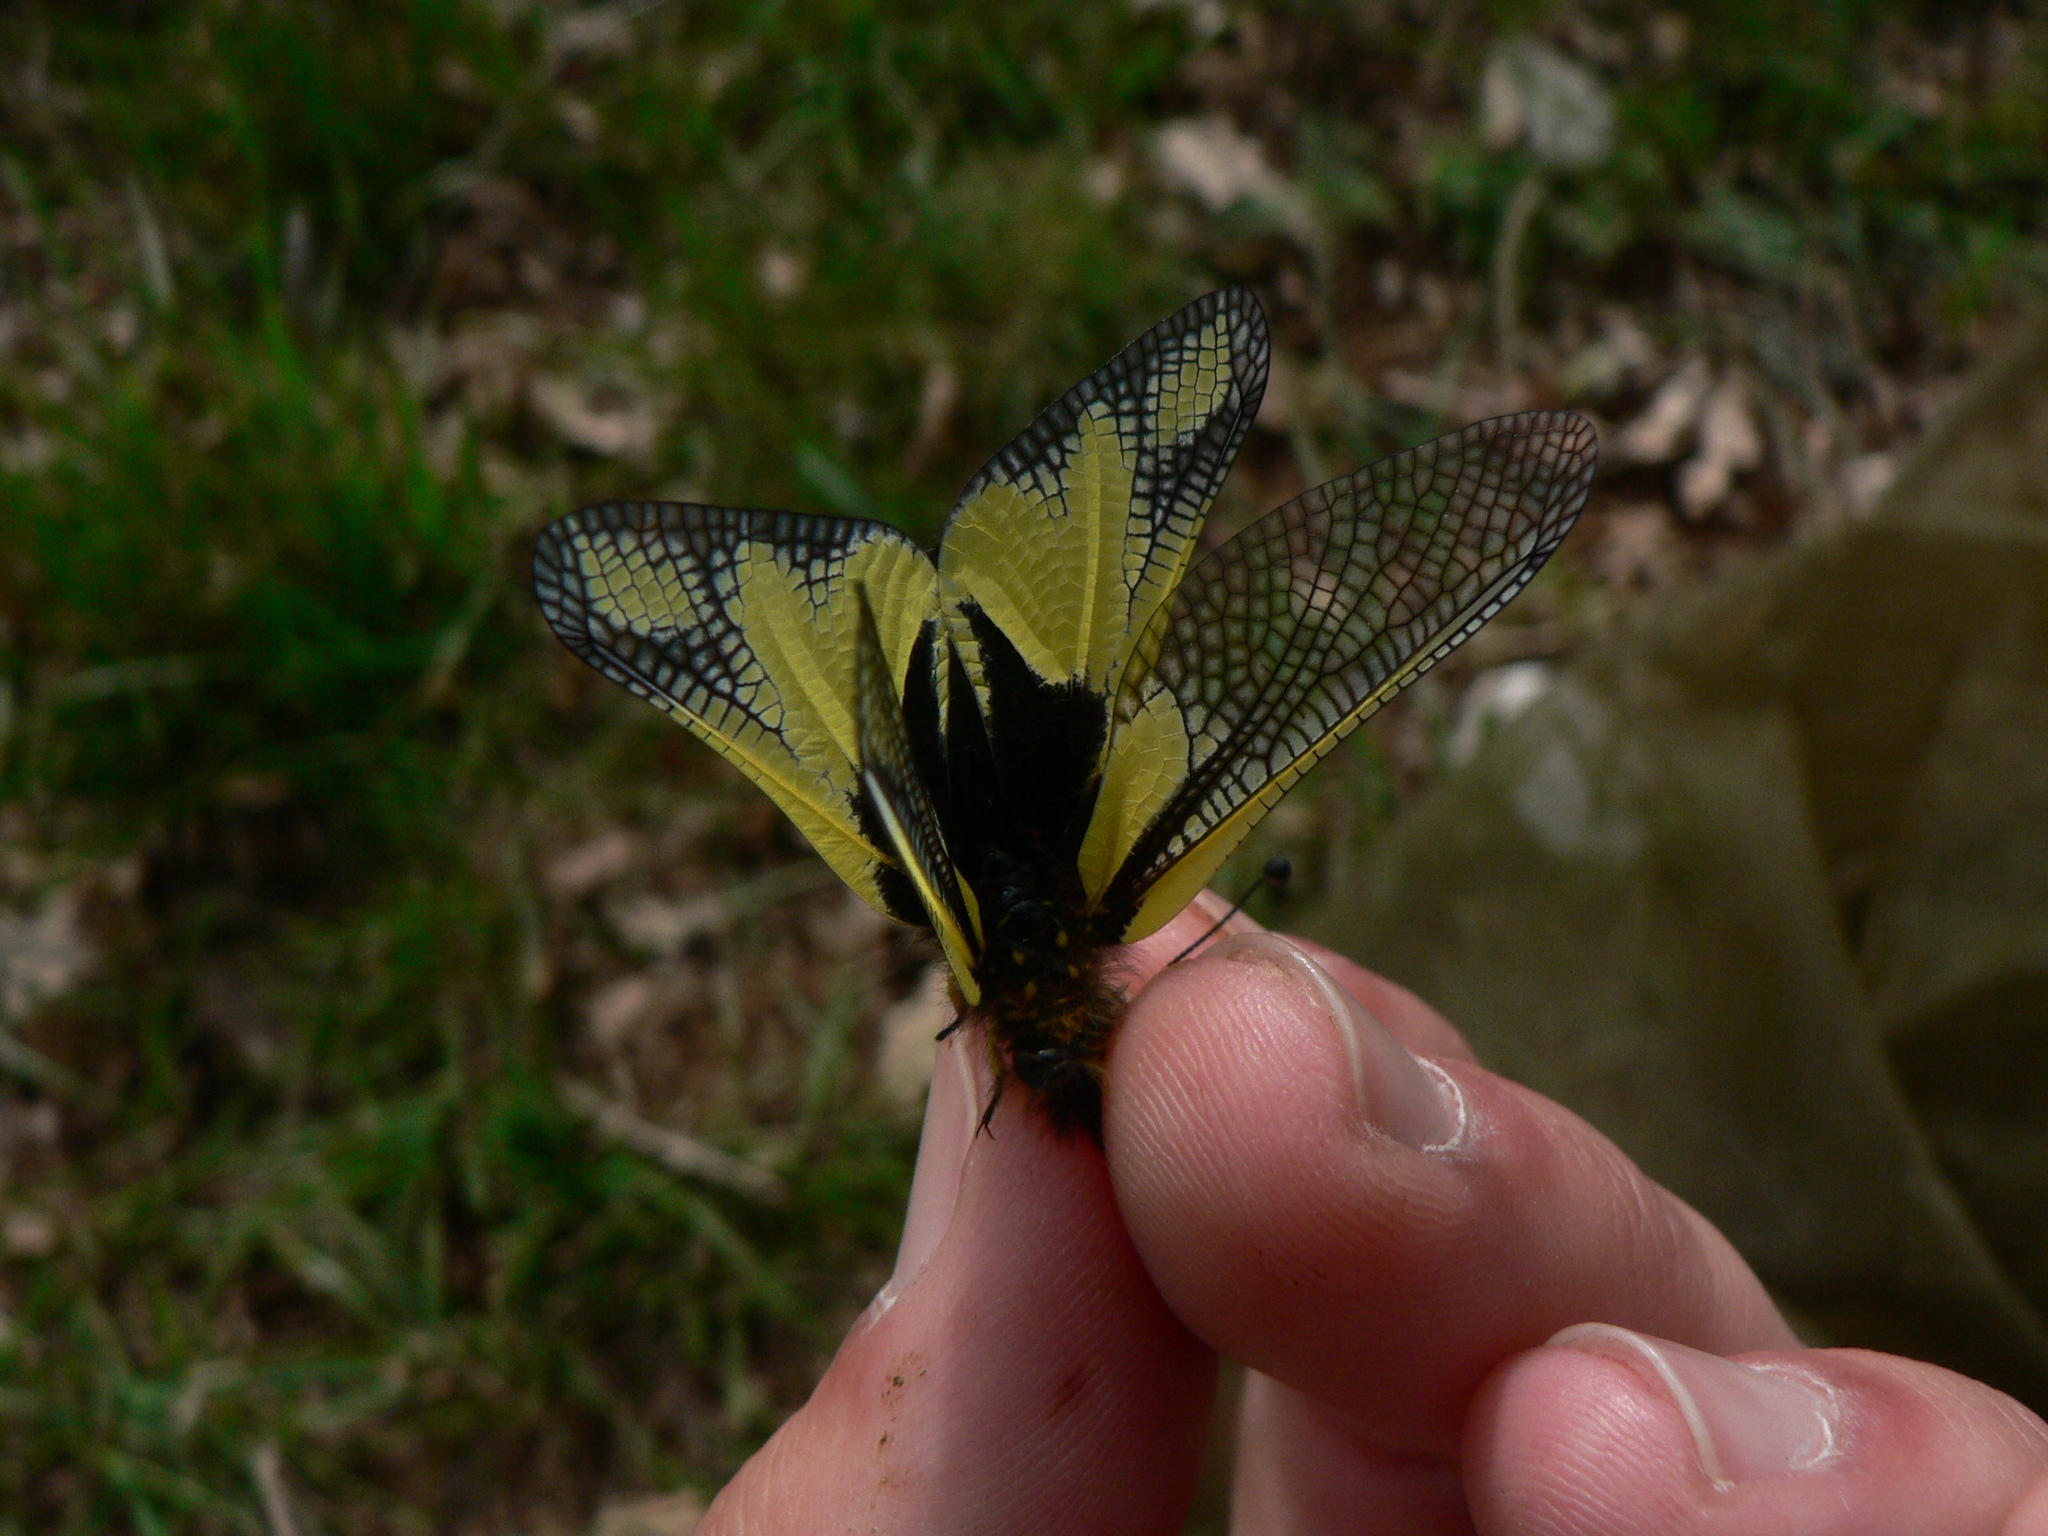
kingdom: Animalia
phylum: Arthropoda
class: Insecta
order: Neuroptera
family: Ascalaphidae
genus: Libelloides
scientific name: Libelloides coccajus
